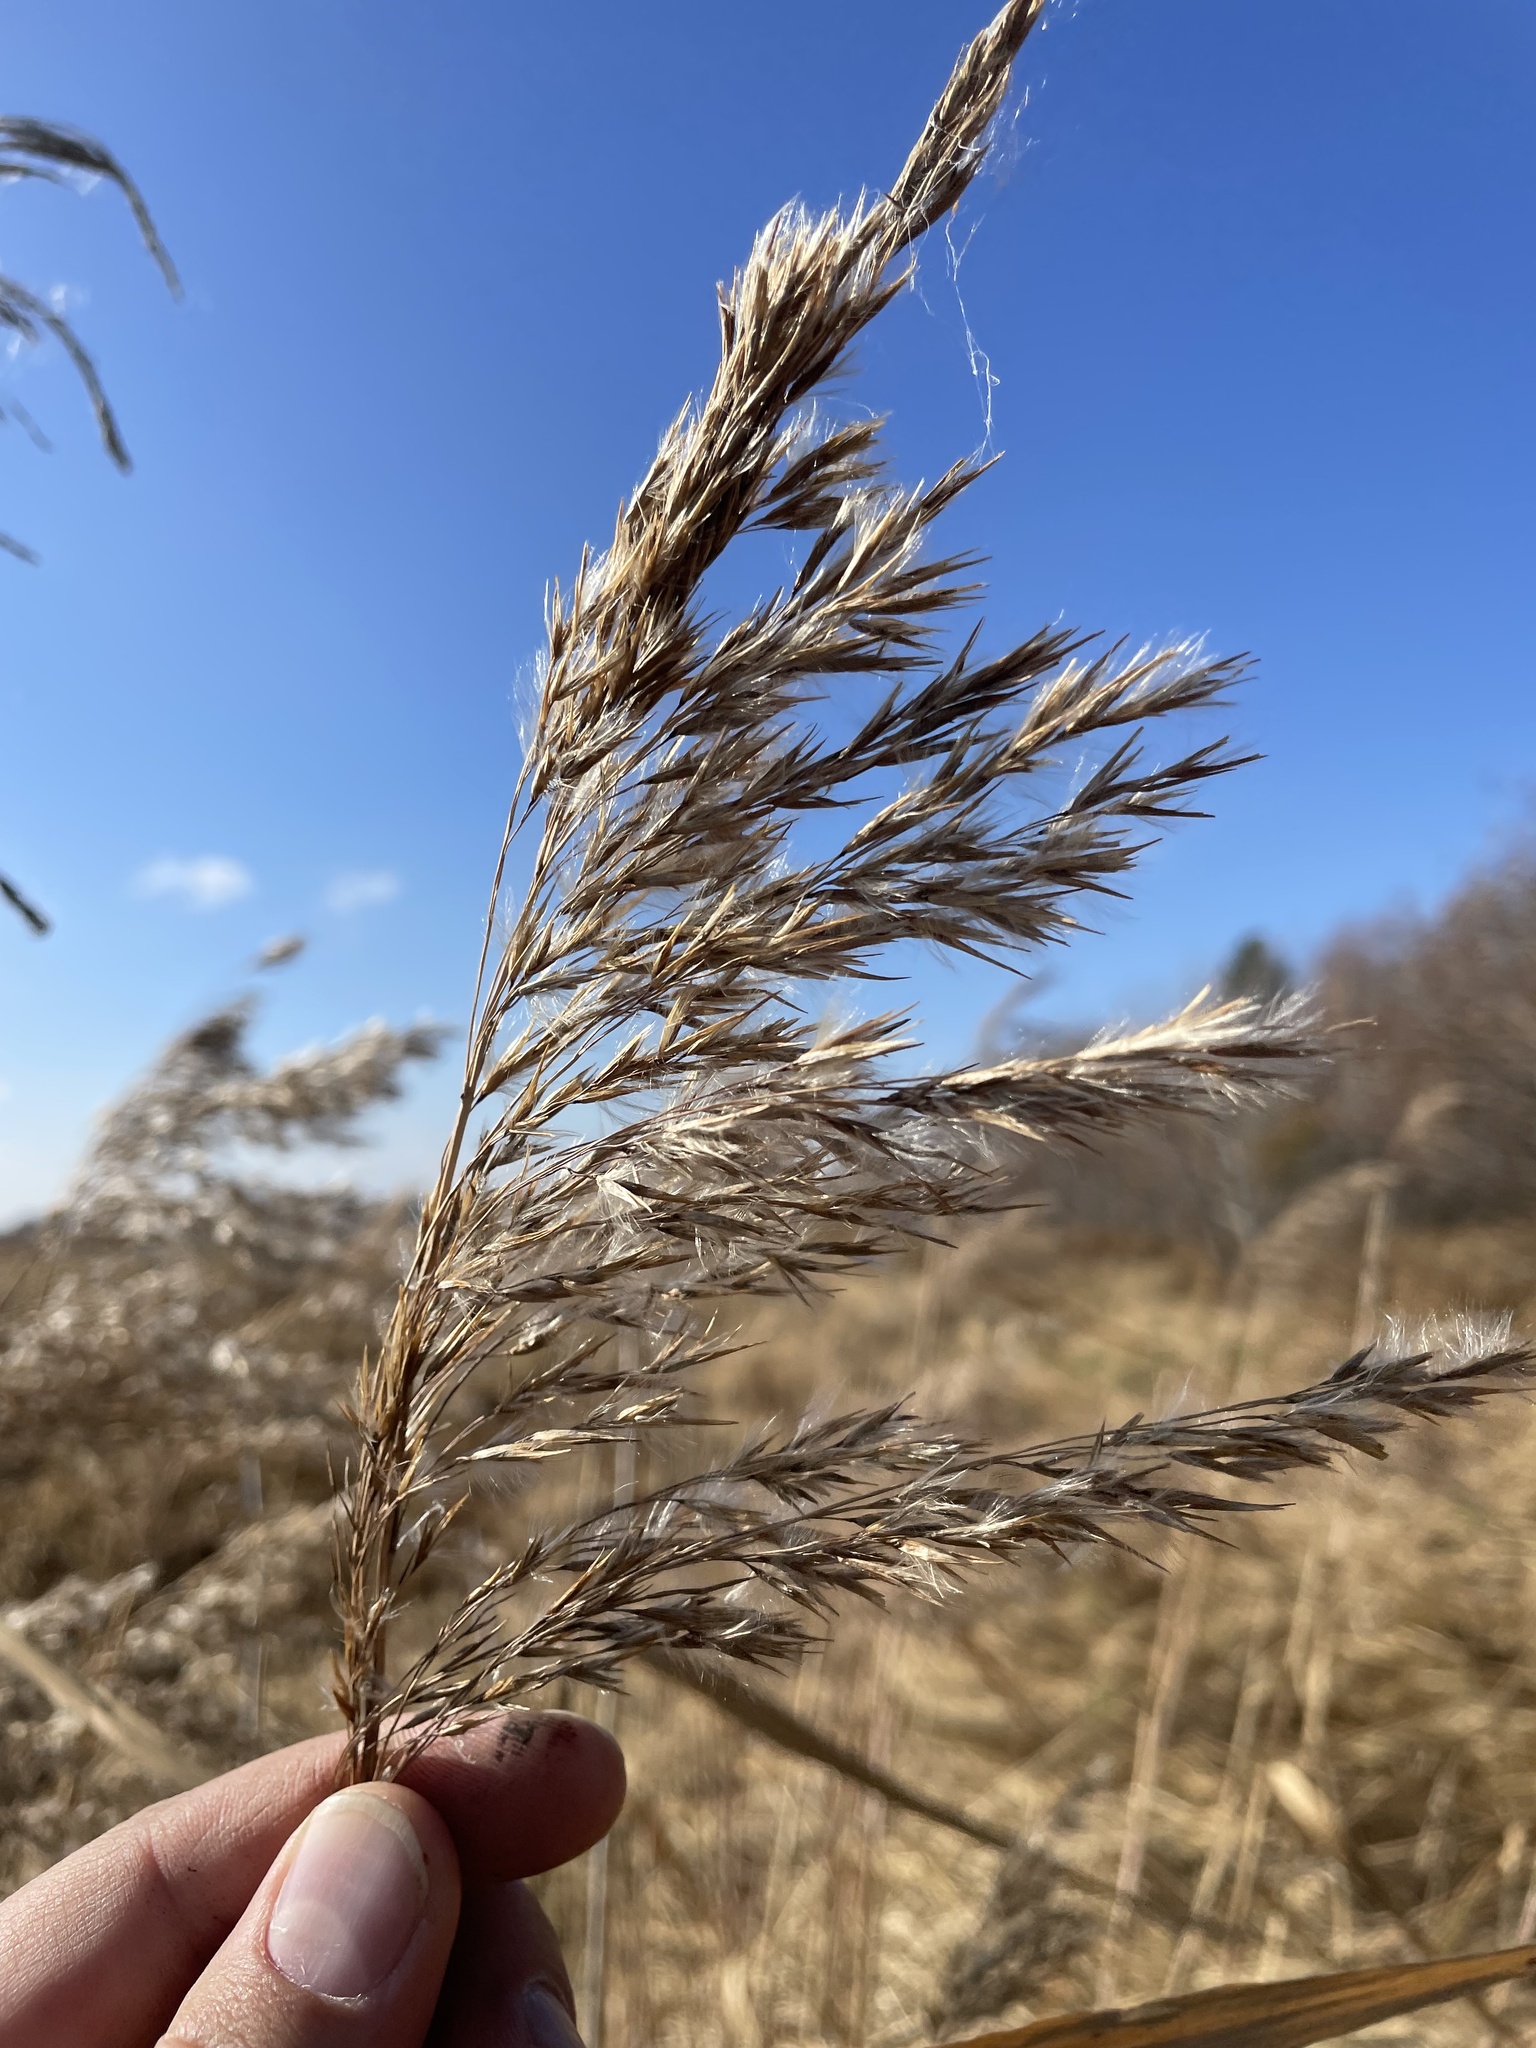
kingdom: Plantae
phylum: Tracheophyta
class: Liliopsida
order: Poales
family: Poaceae
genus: Phragmites
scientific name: Phragmites australis
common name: Common reed
